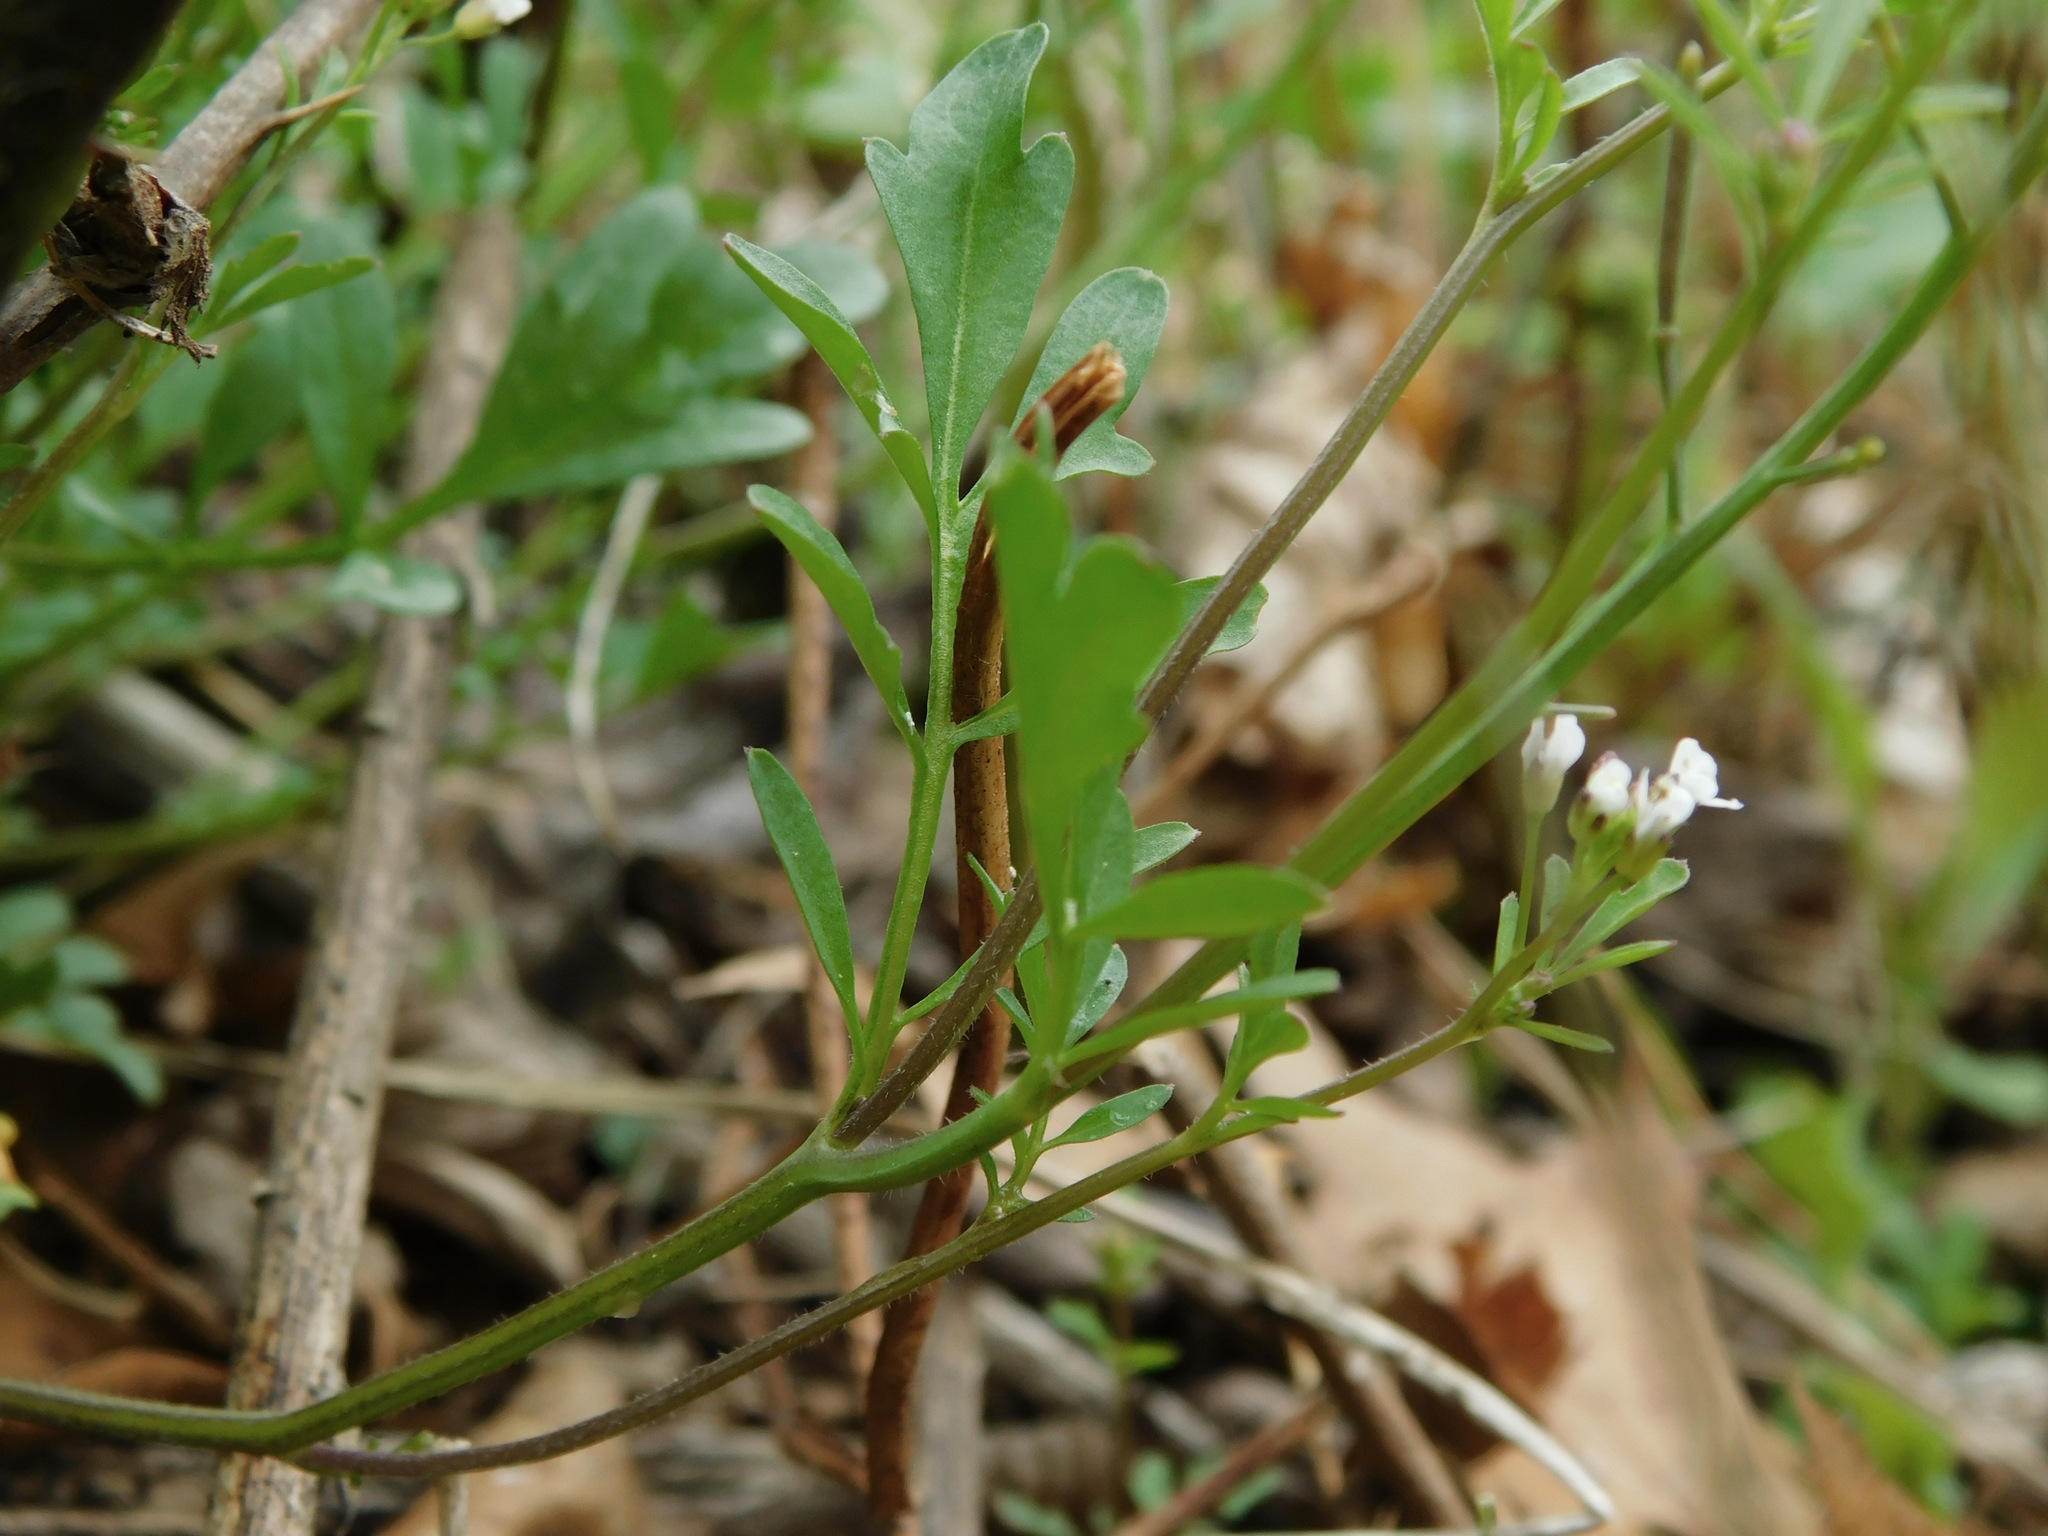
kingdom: Plantae
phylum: Tracheophyta
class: Magnoliopsida
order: Brassicales
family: Brassicaceae
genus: Cardamine
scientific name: Cardamine hirsuta
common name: Hairy bittercress
